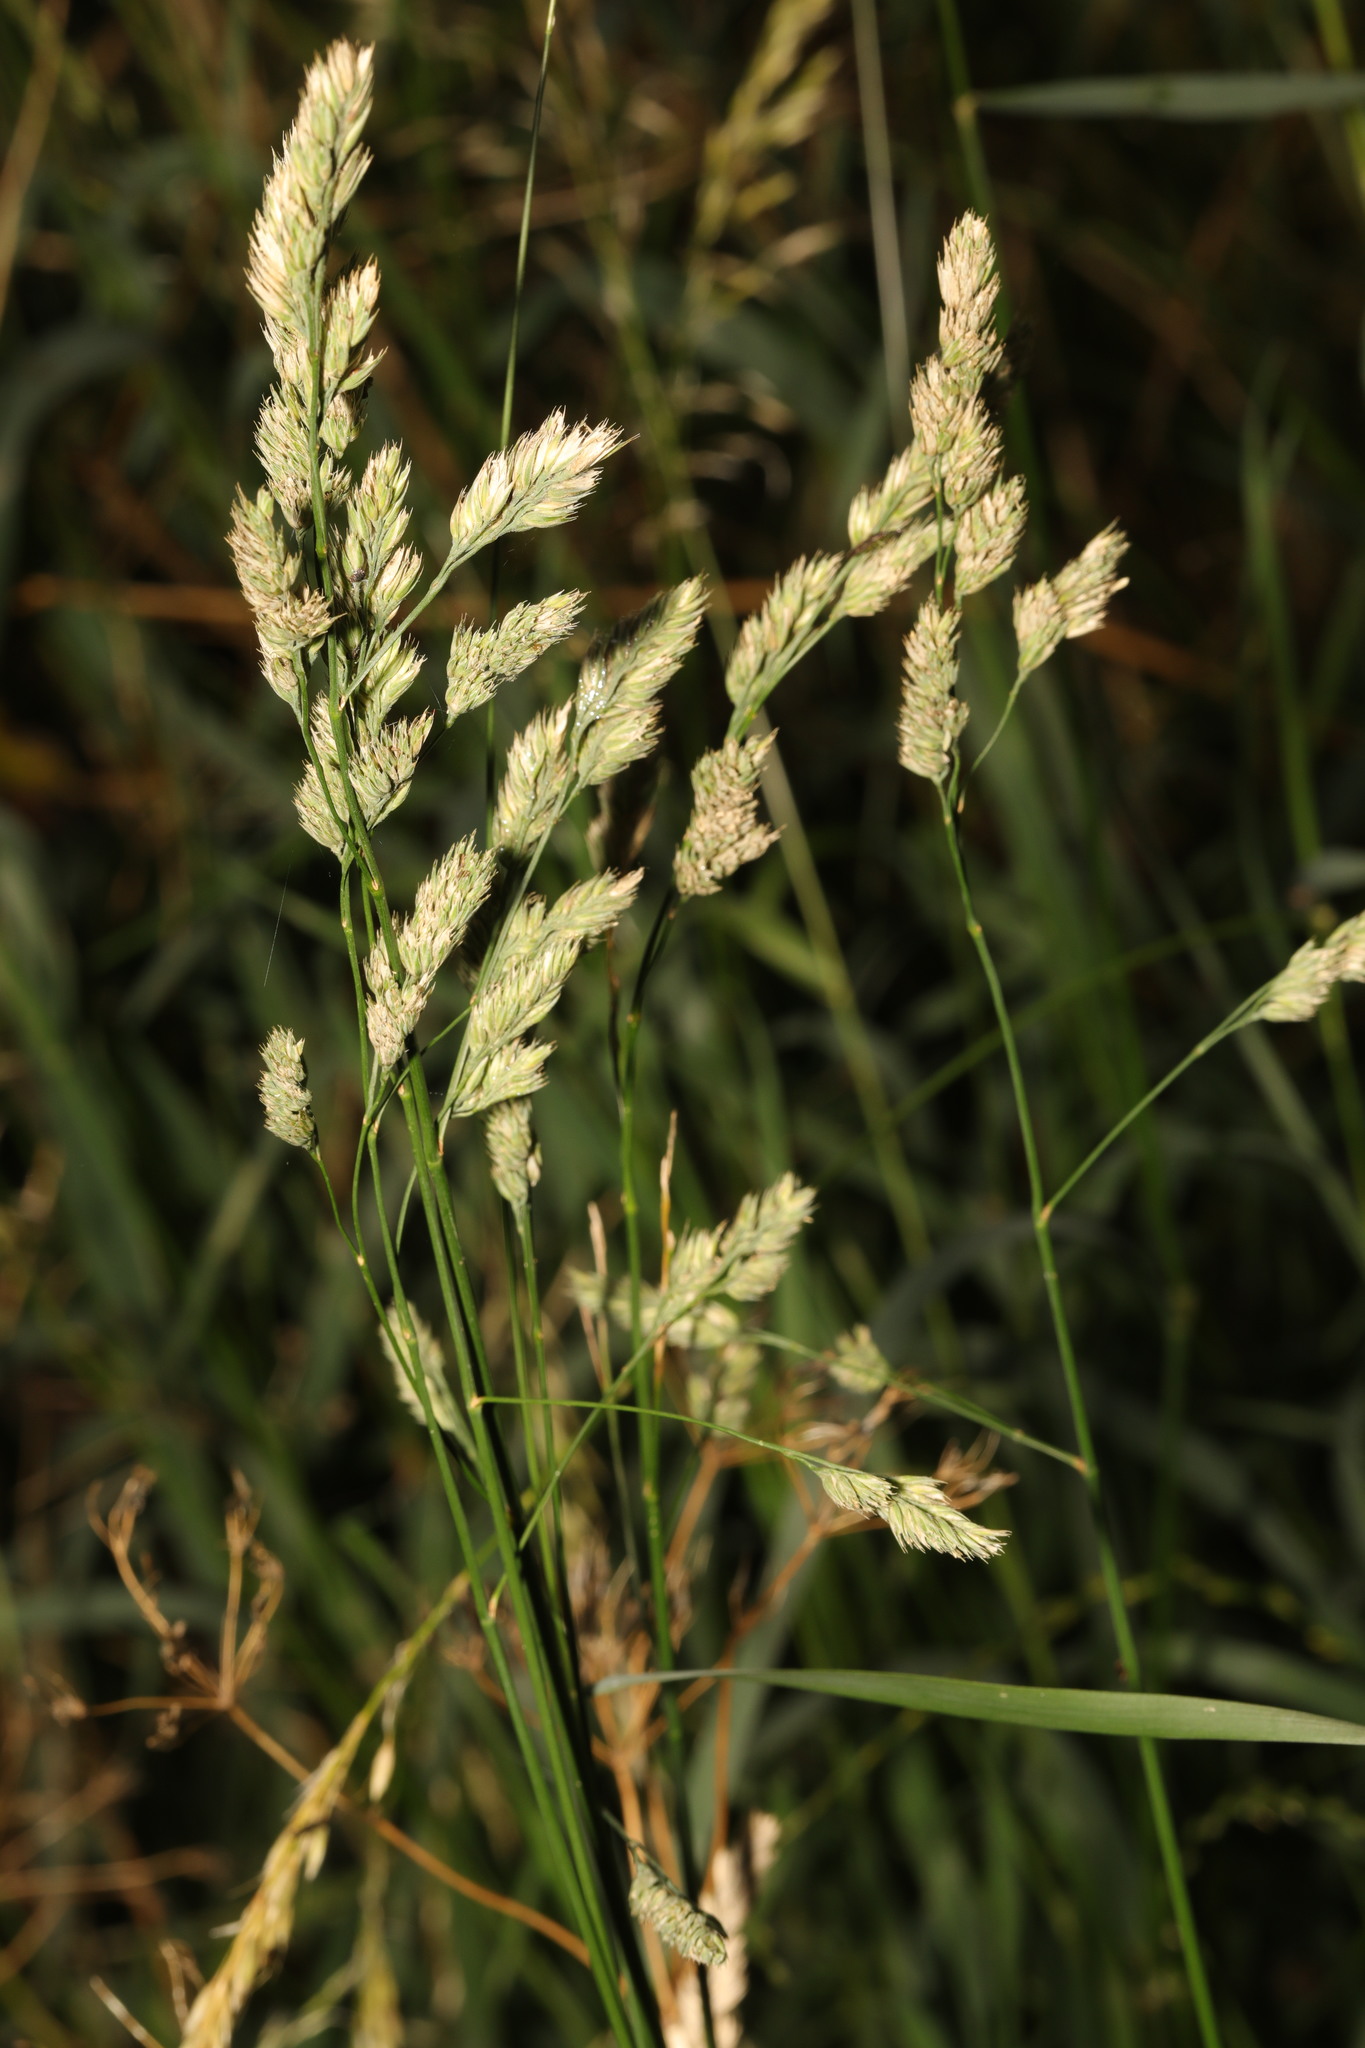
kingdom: Plantae
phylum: Tracheophyta
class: Liliopsida
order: Poales
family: Poaceae
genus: Dactylis
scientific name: Dactylis glomerata
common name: Orchardgrass
